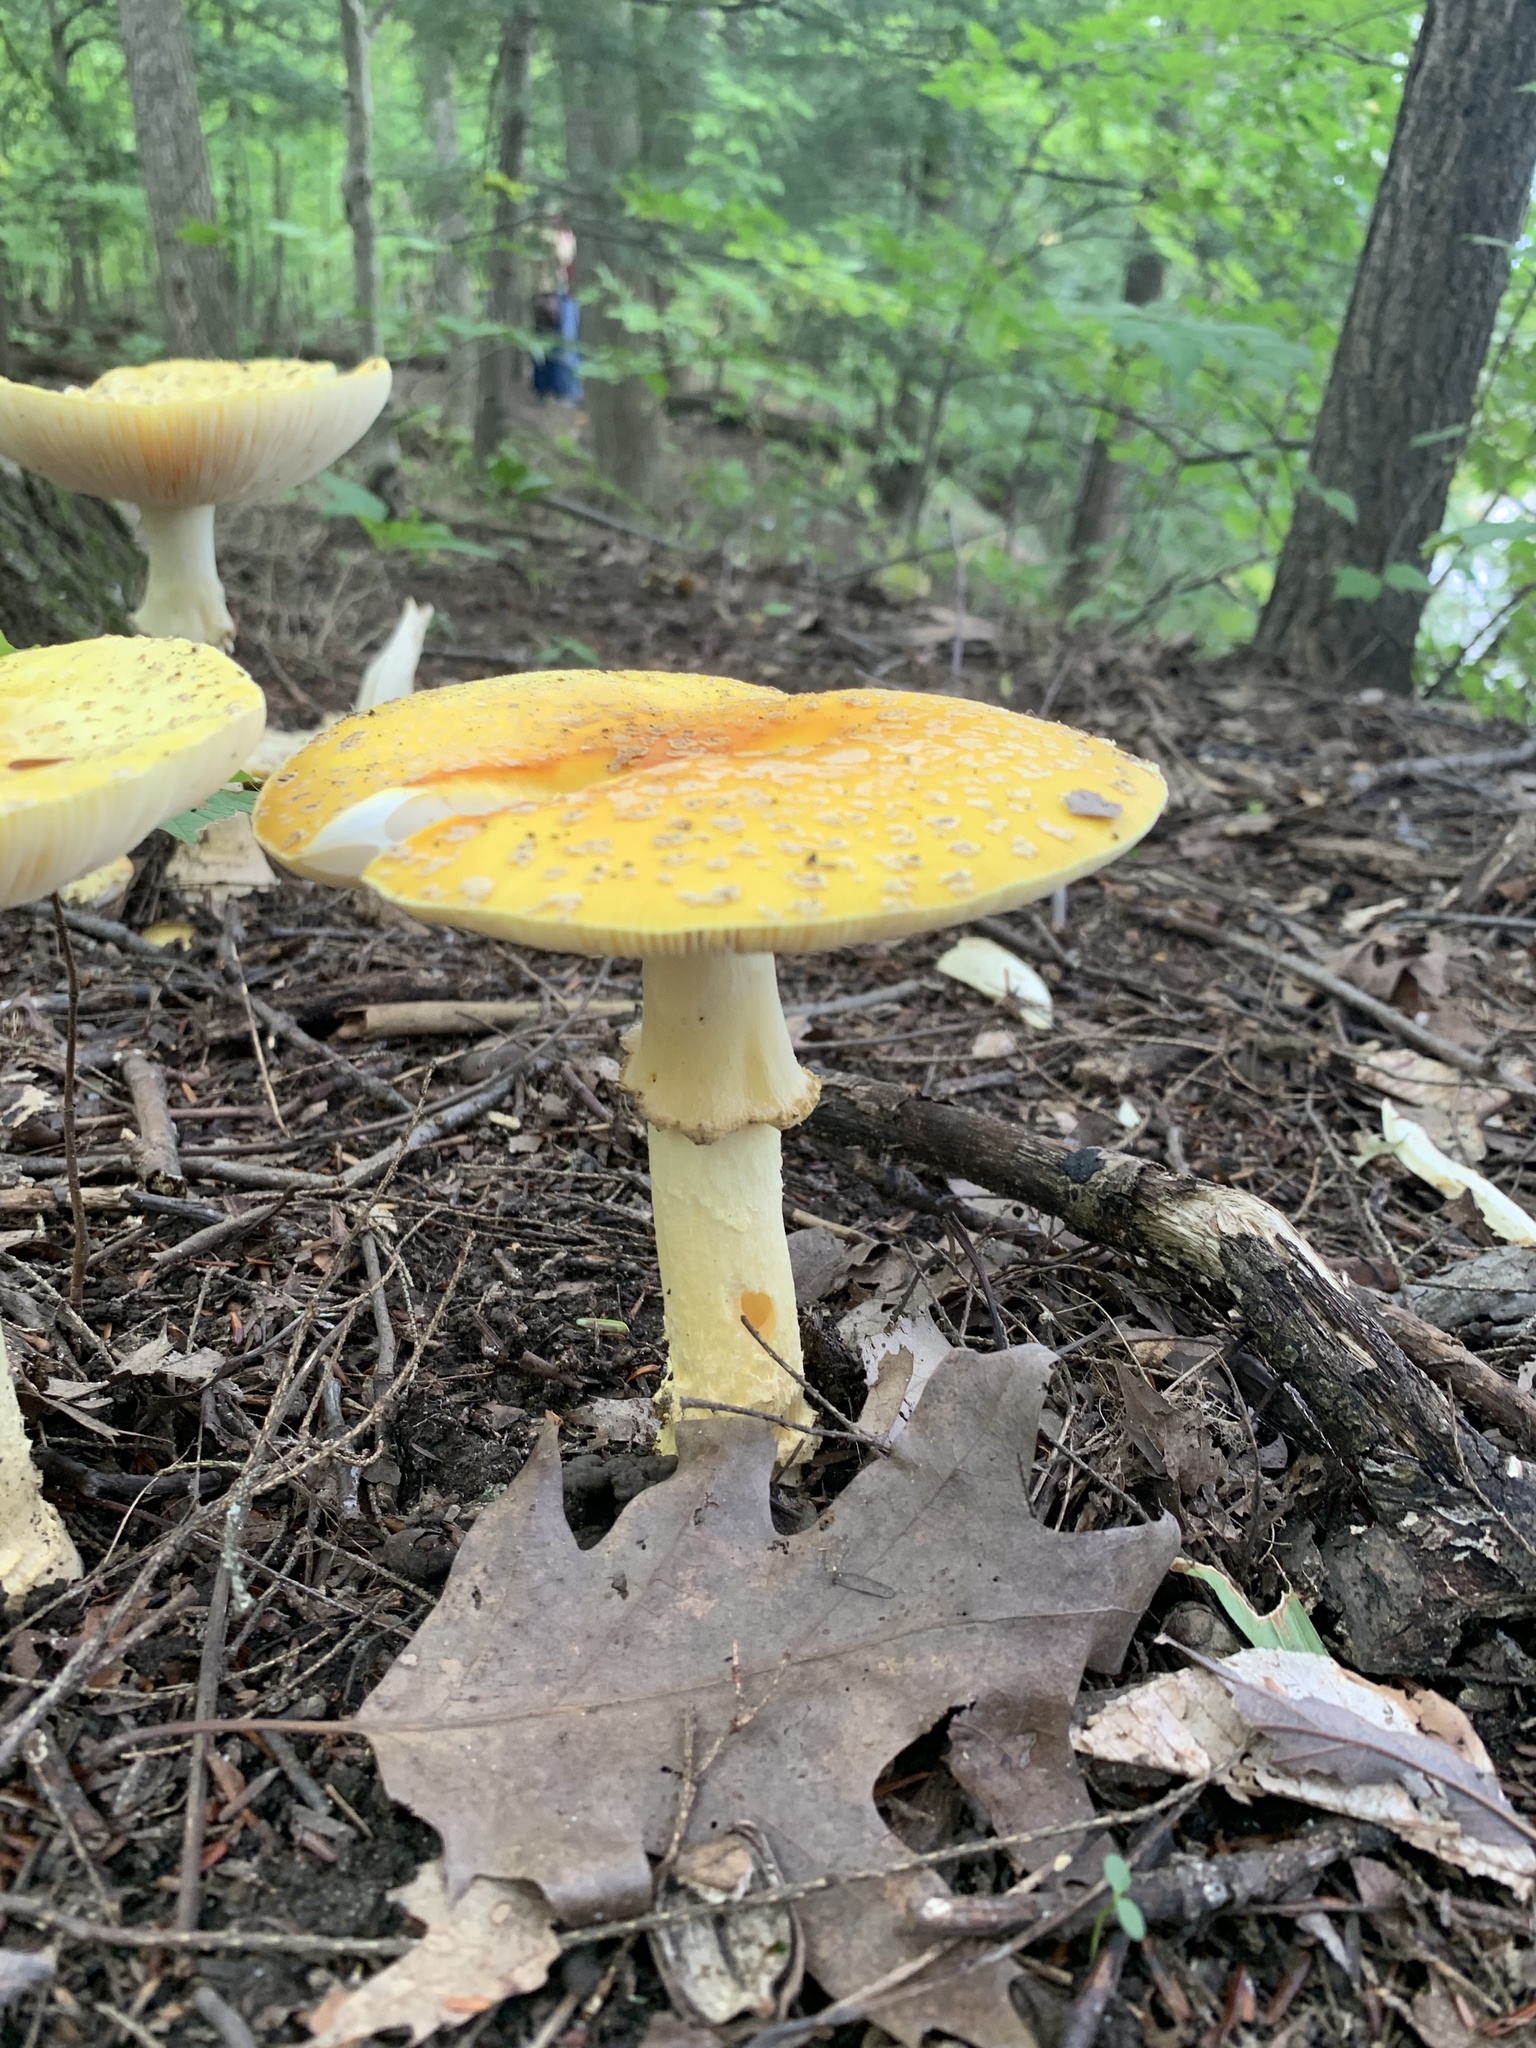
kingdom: Fungi
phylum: Basidiomycota
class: Agaricomycetes
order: Agaricales
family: Amanitaceae
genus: Amanita
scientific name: Amanita muscaria
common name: Fly agaric
